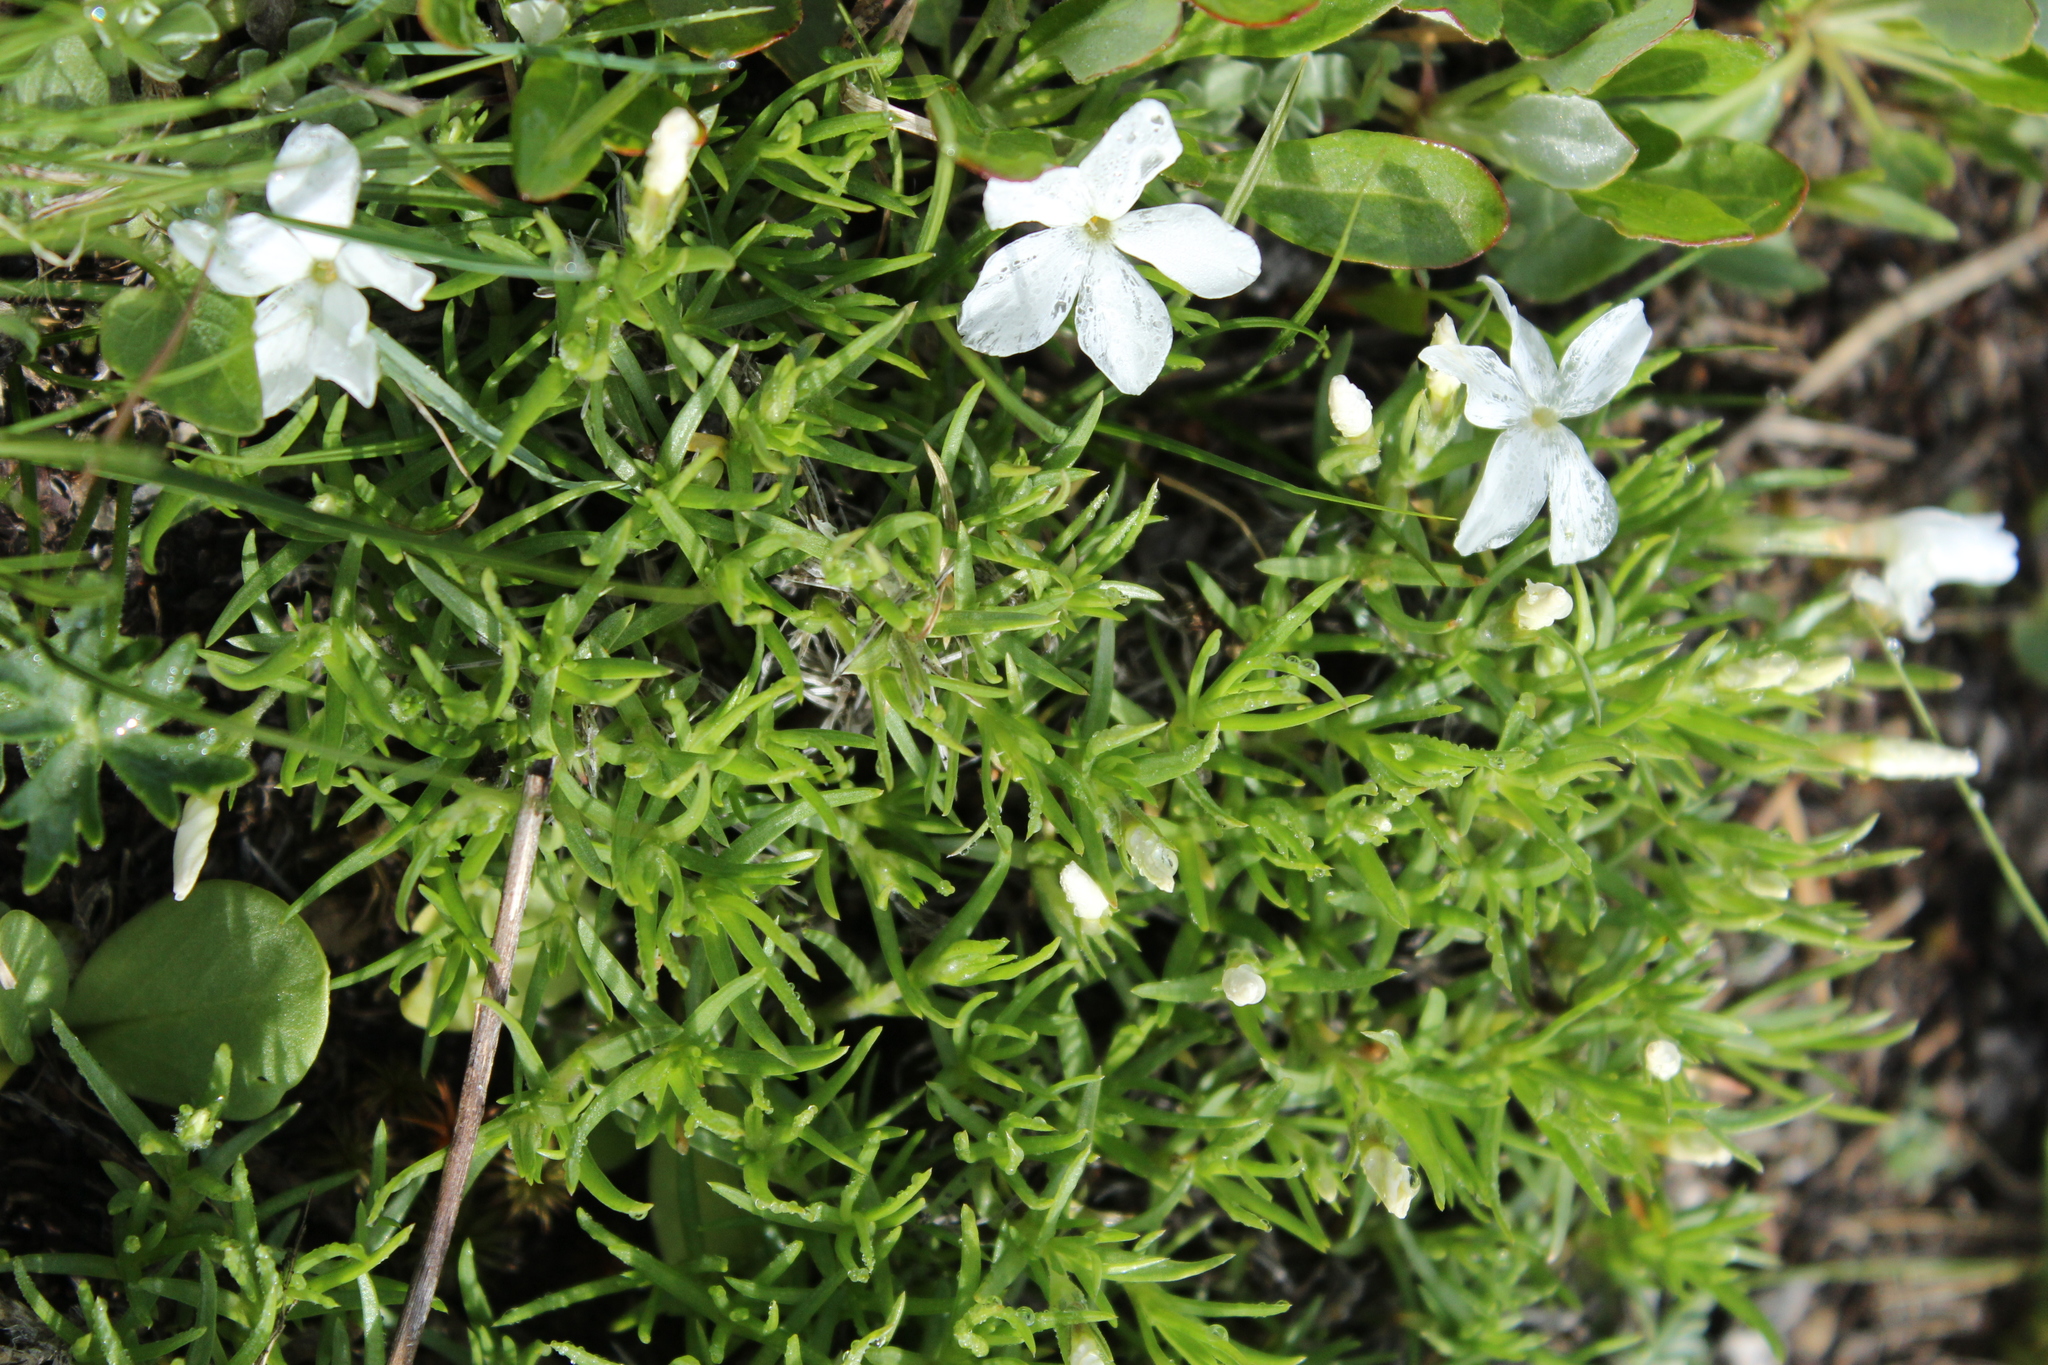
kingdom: Plantae
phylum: Tracheophyta
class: Magnoliopsida
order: Ericales
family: Polemoniaceae
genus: Phlox
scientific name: Phlox multiflora
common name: Rocky mountain phlox
